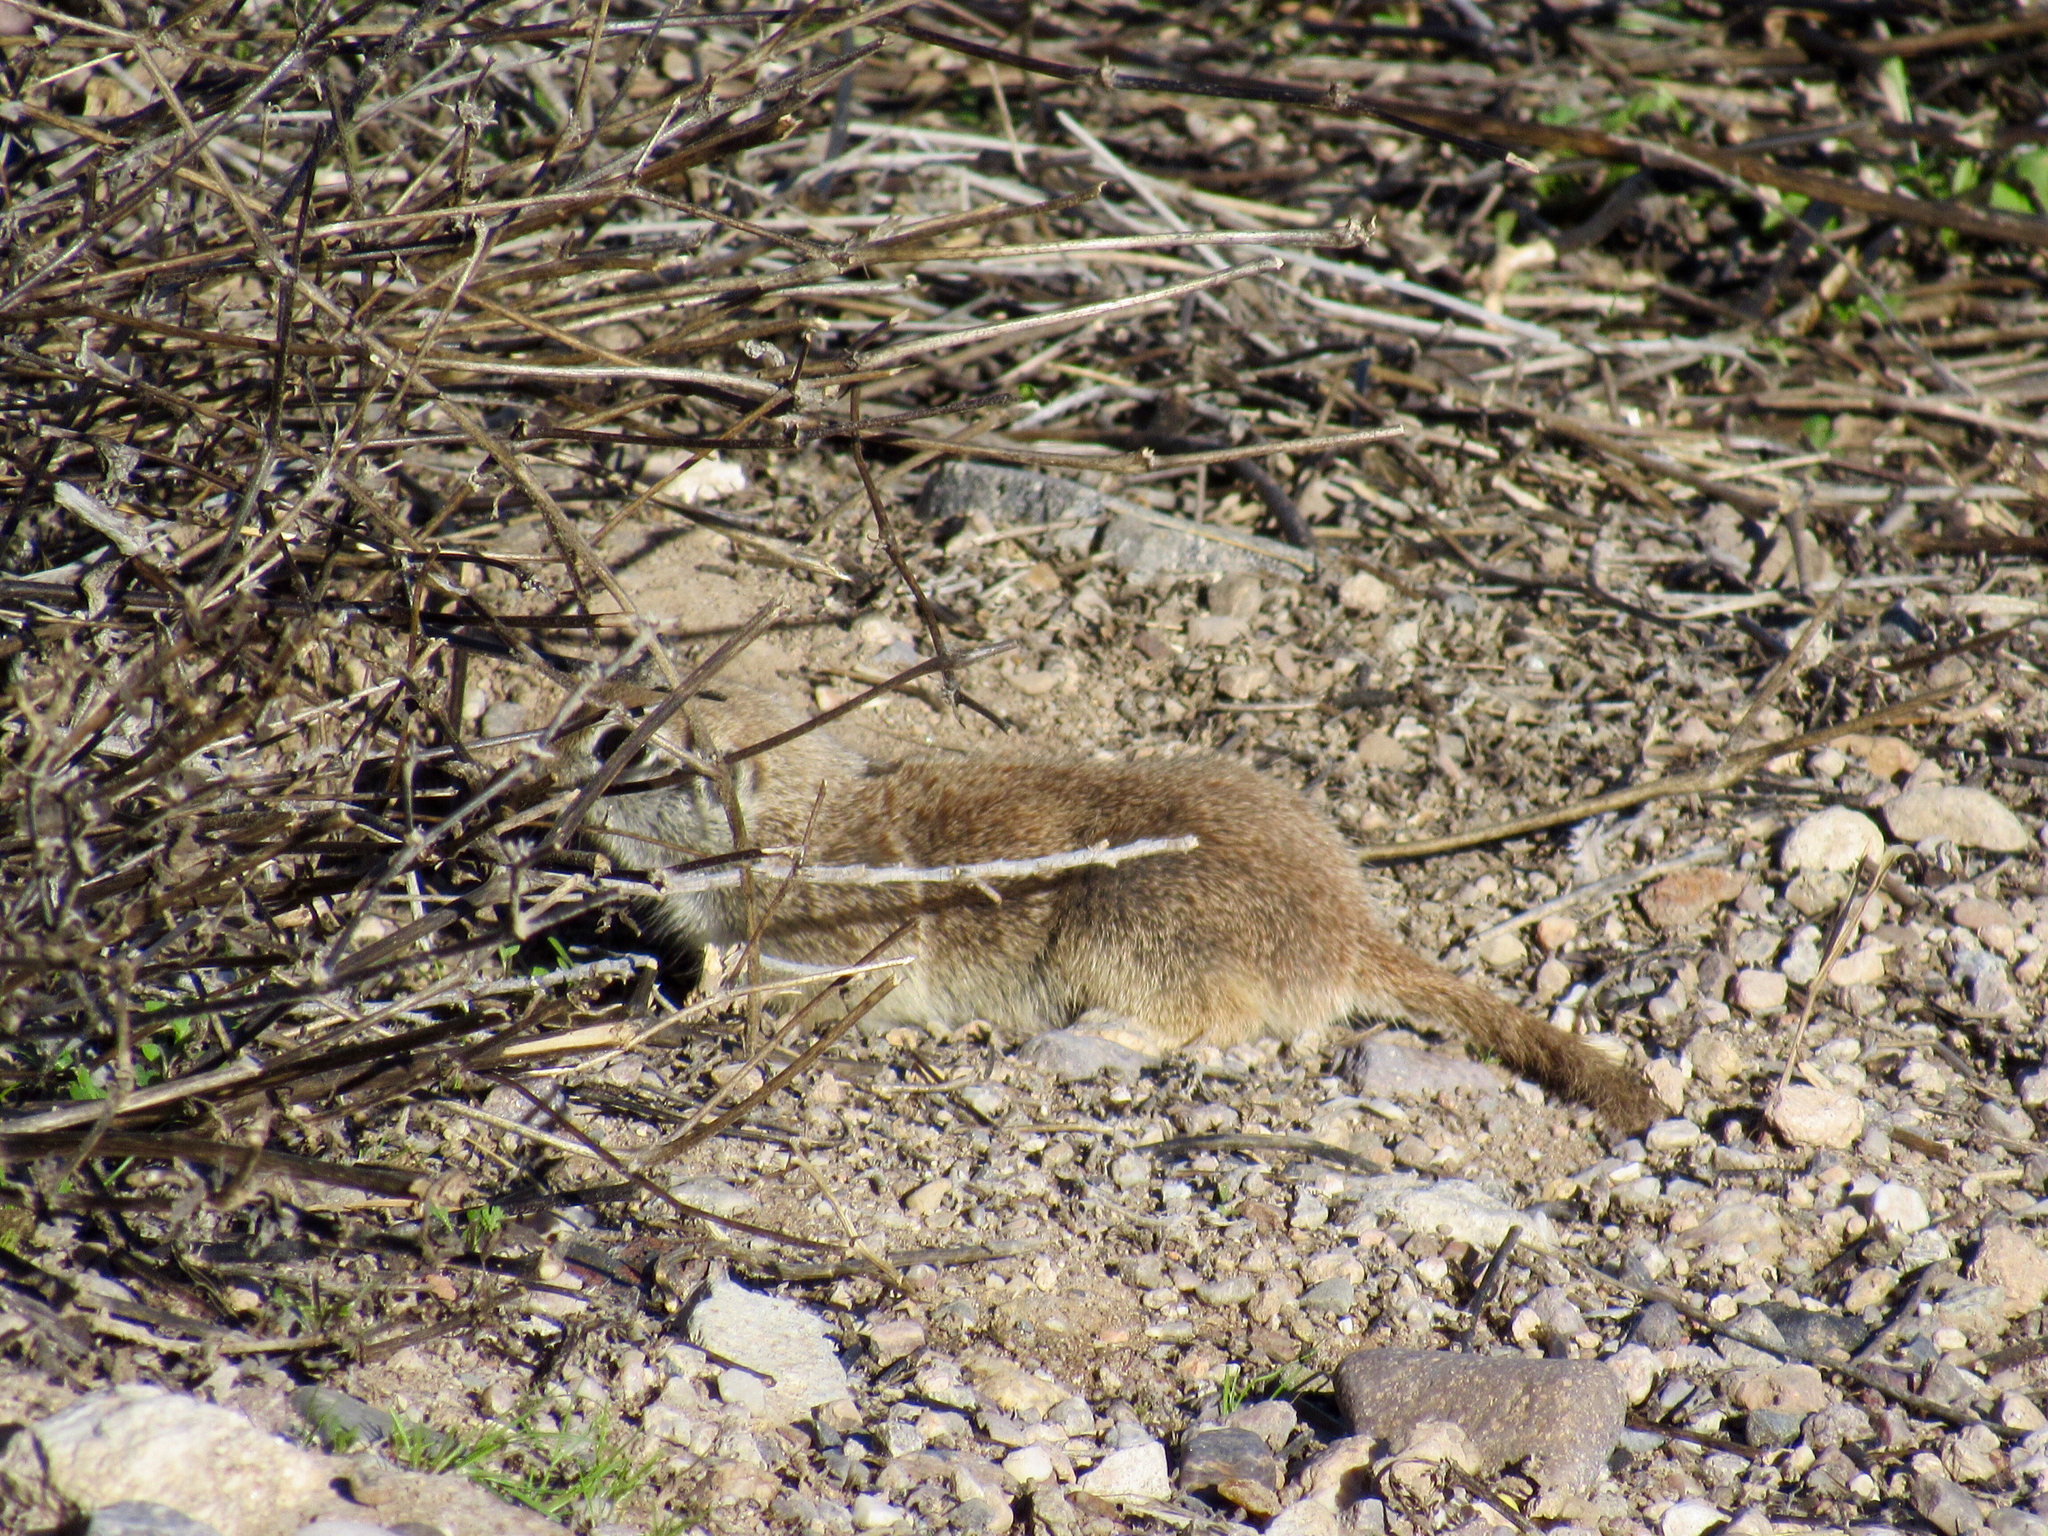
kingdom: Animalia
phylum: Chordata
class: Mammalia
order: Rodentia
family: Sciuridae
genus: Xerospermophilus
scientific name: Xerospermophilus tereticaudus
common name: Round-tailed ground squirrel
